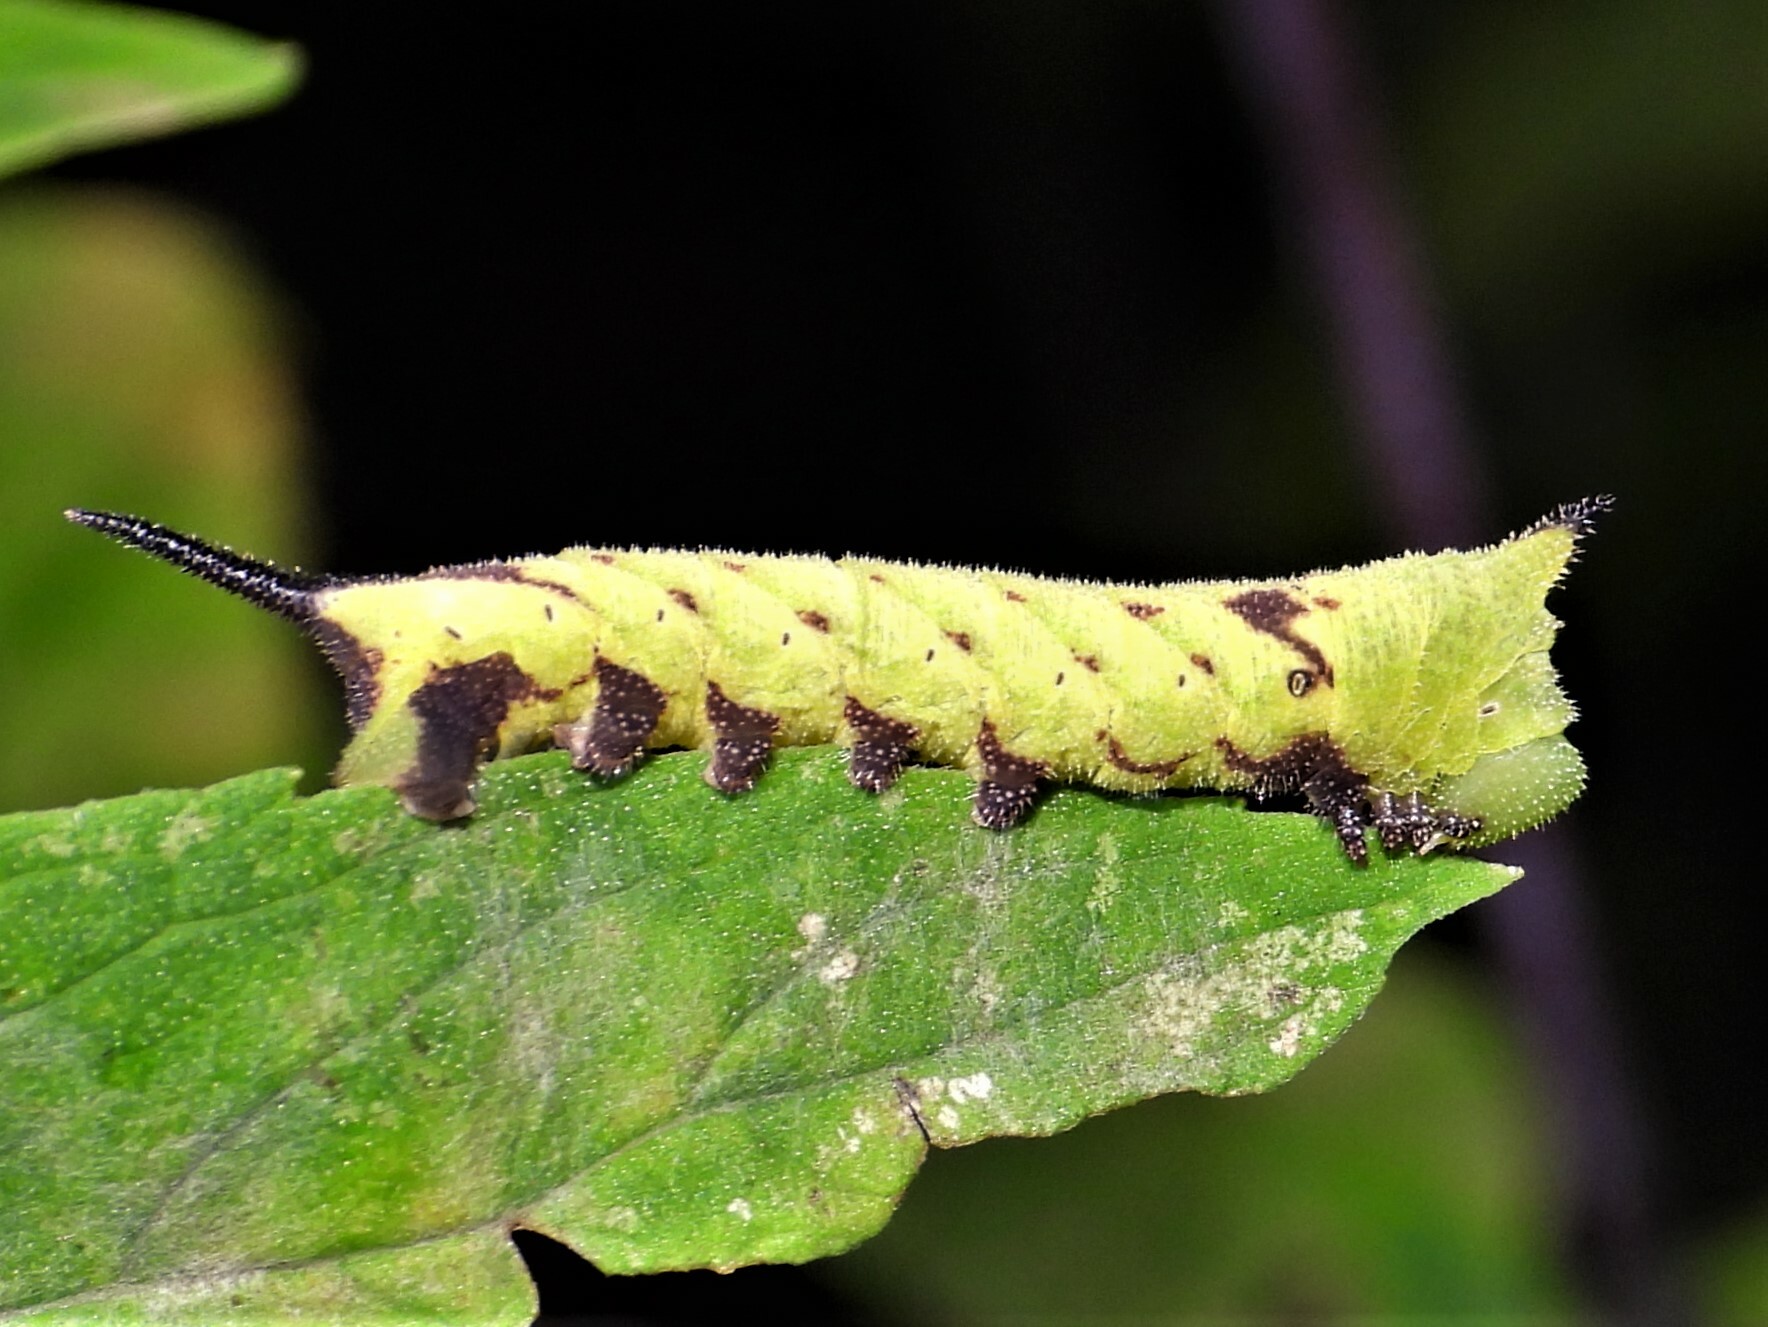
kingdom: Animalia
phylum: Arthropoda
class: Insecta
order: Lepidoptera
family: Sphingidae
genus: Lintneria
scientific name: Lintneria eremitus
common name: Hermit sphinx
